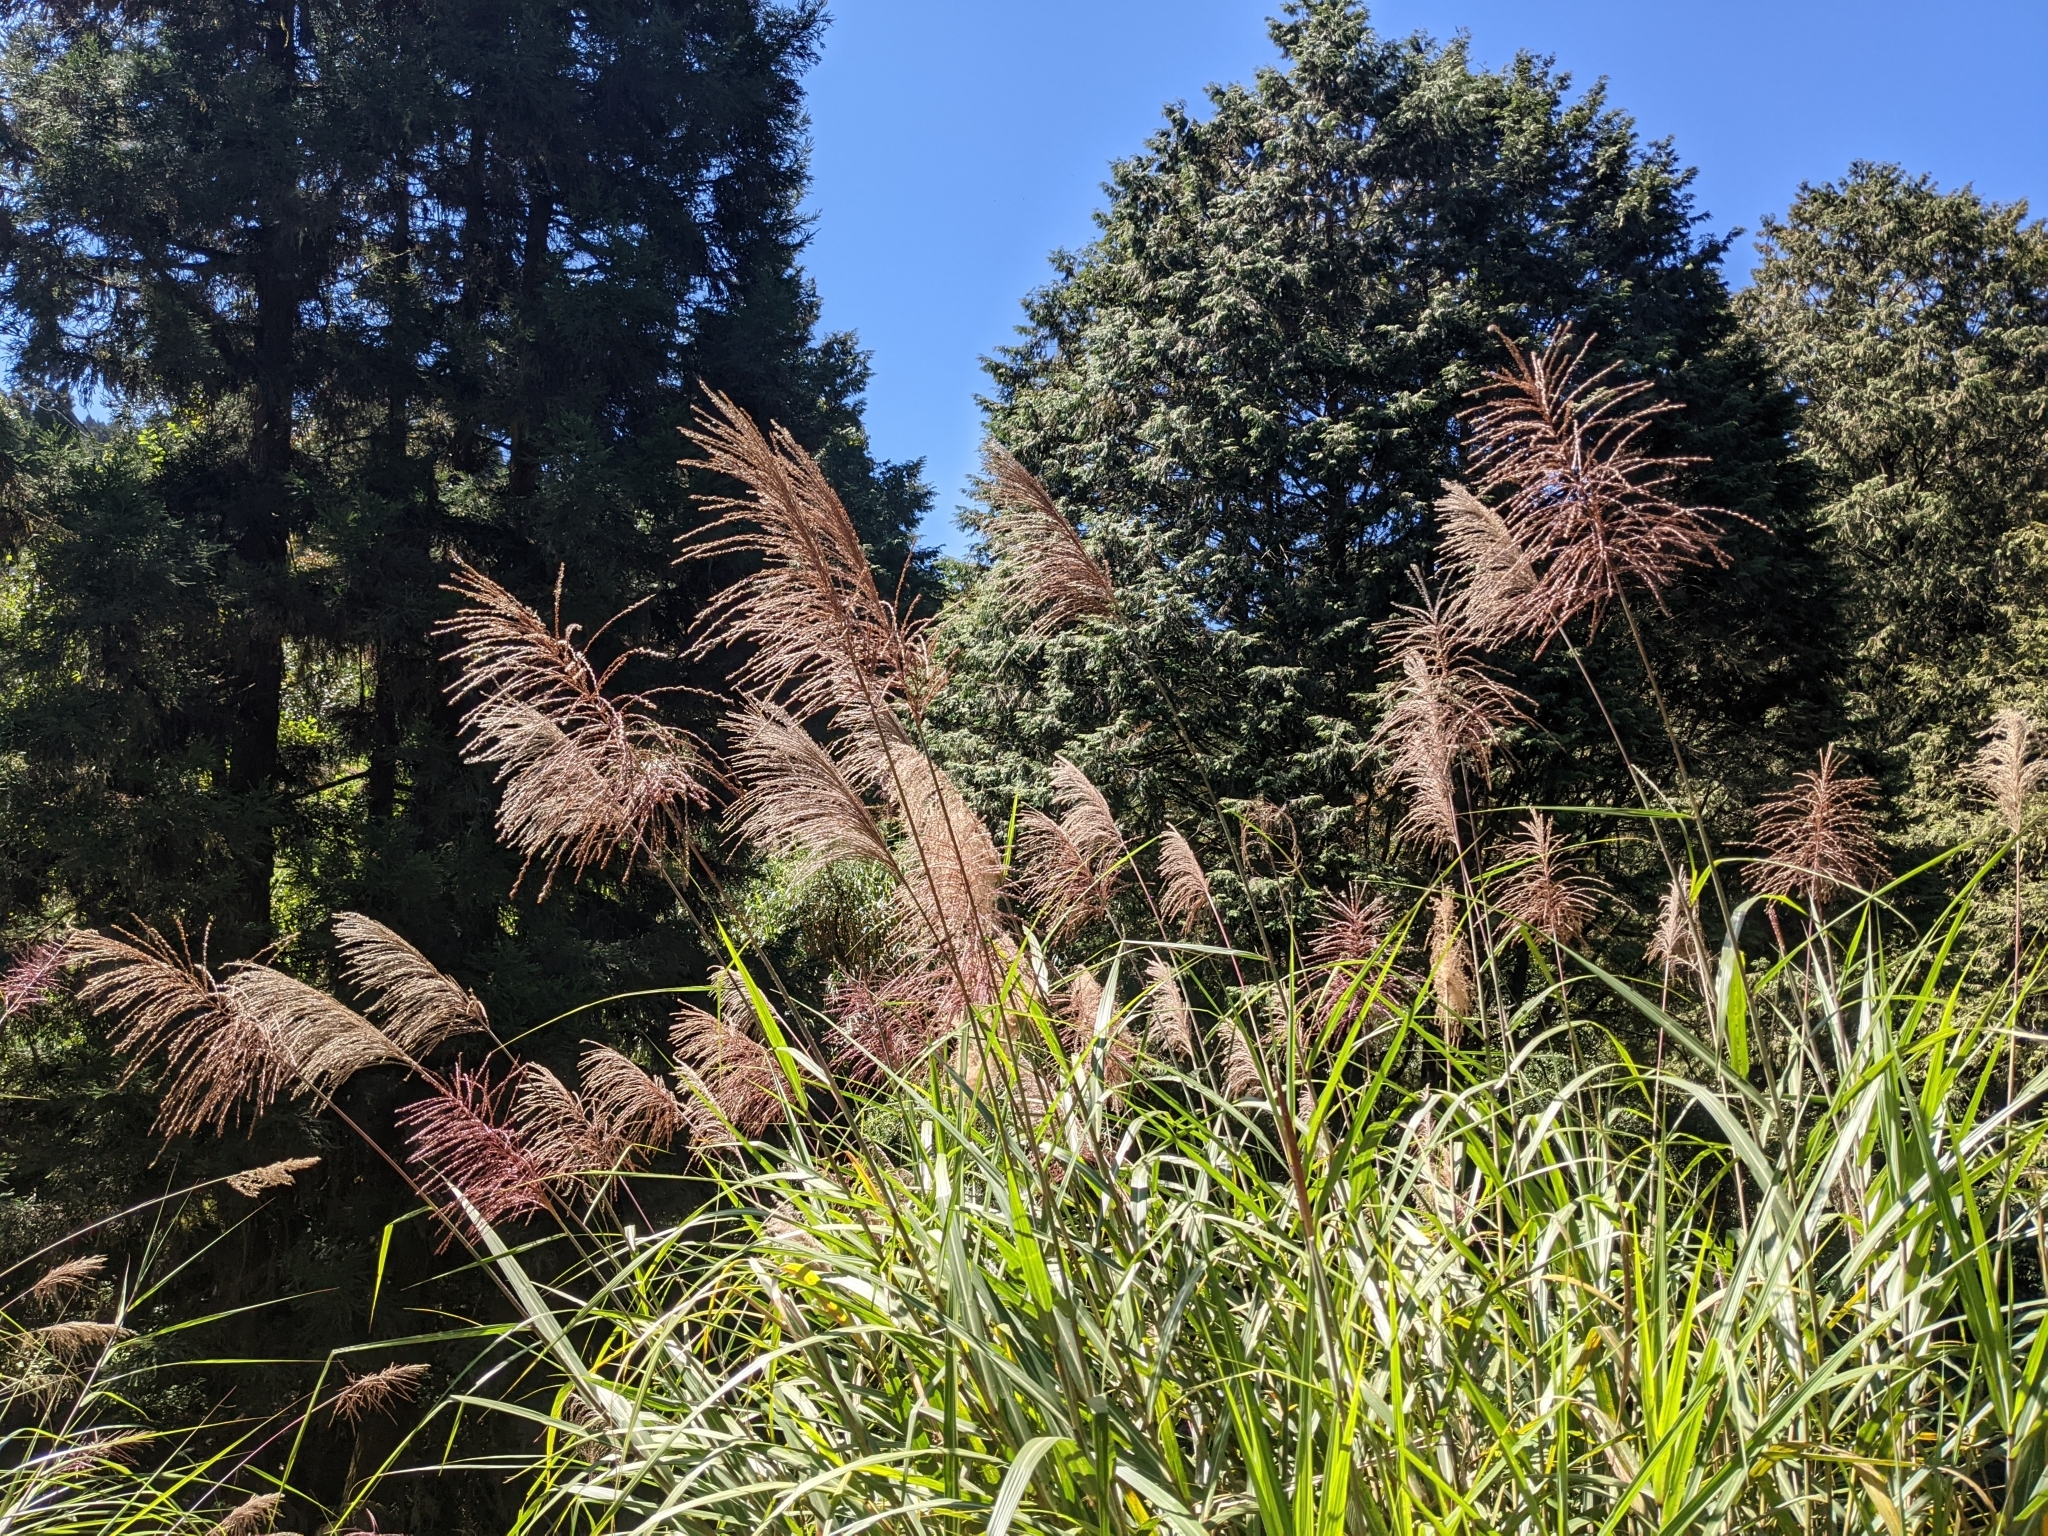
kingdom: Plantae
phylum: Tracheophyta
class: Liliopsida
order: Poales
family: Poaceae
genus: Miscanthus
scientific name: Miscanthus sinensis
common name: Chinese silvergrass
